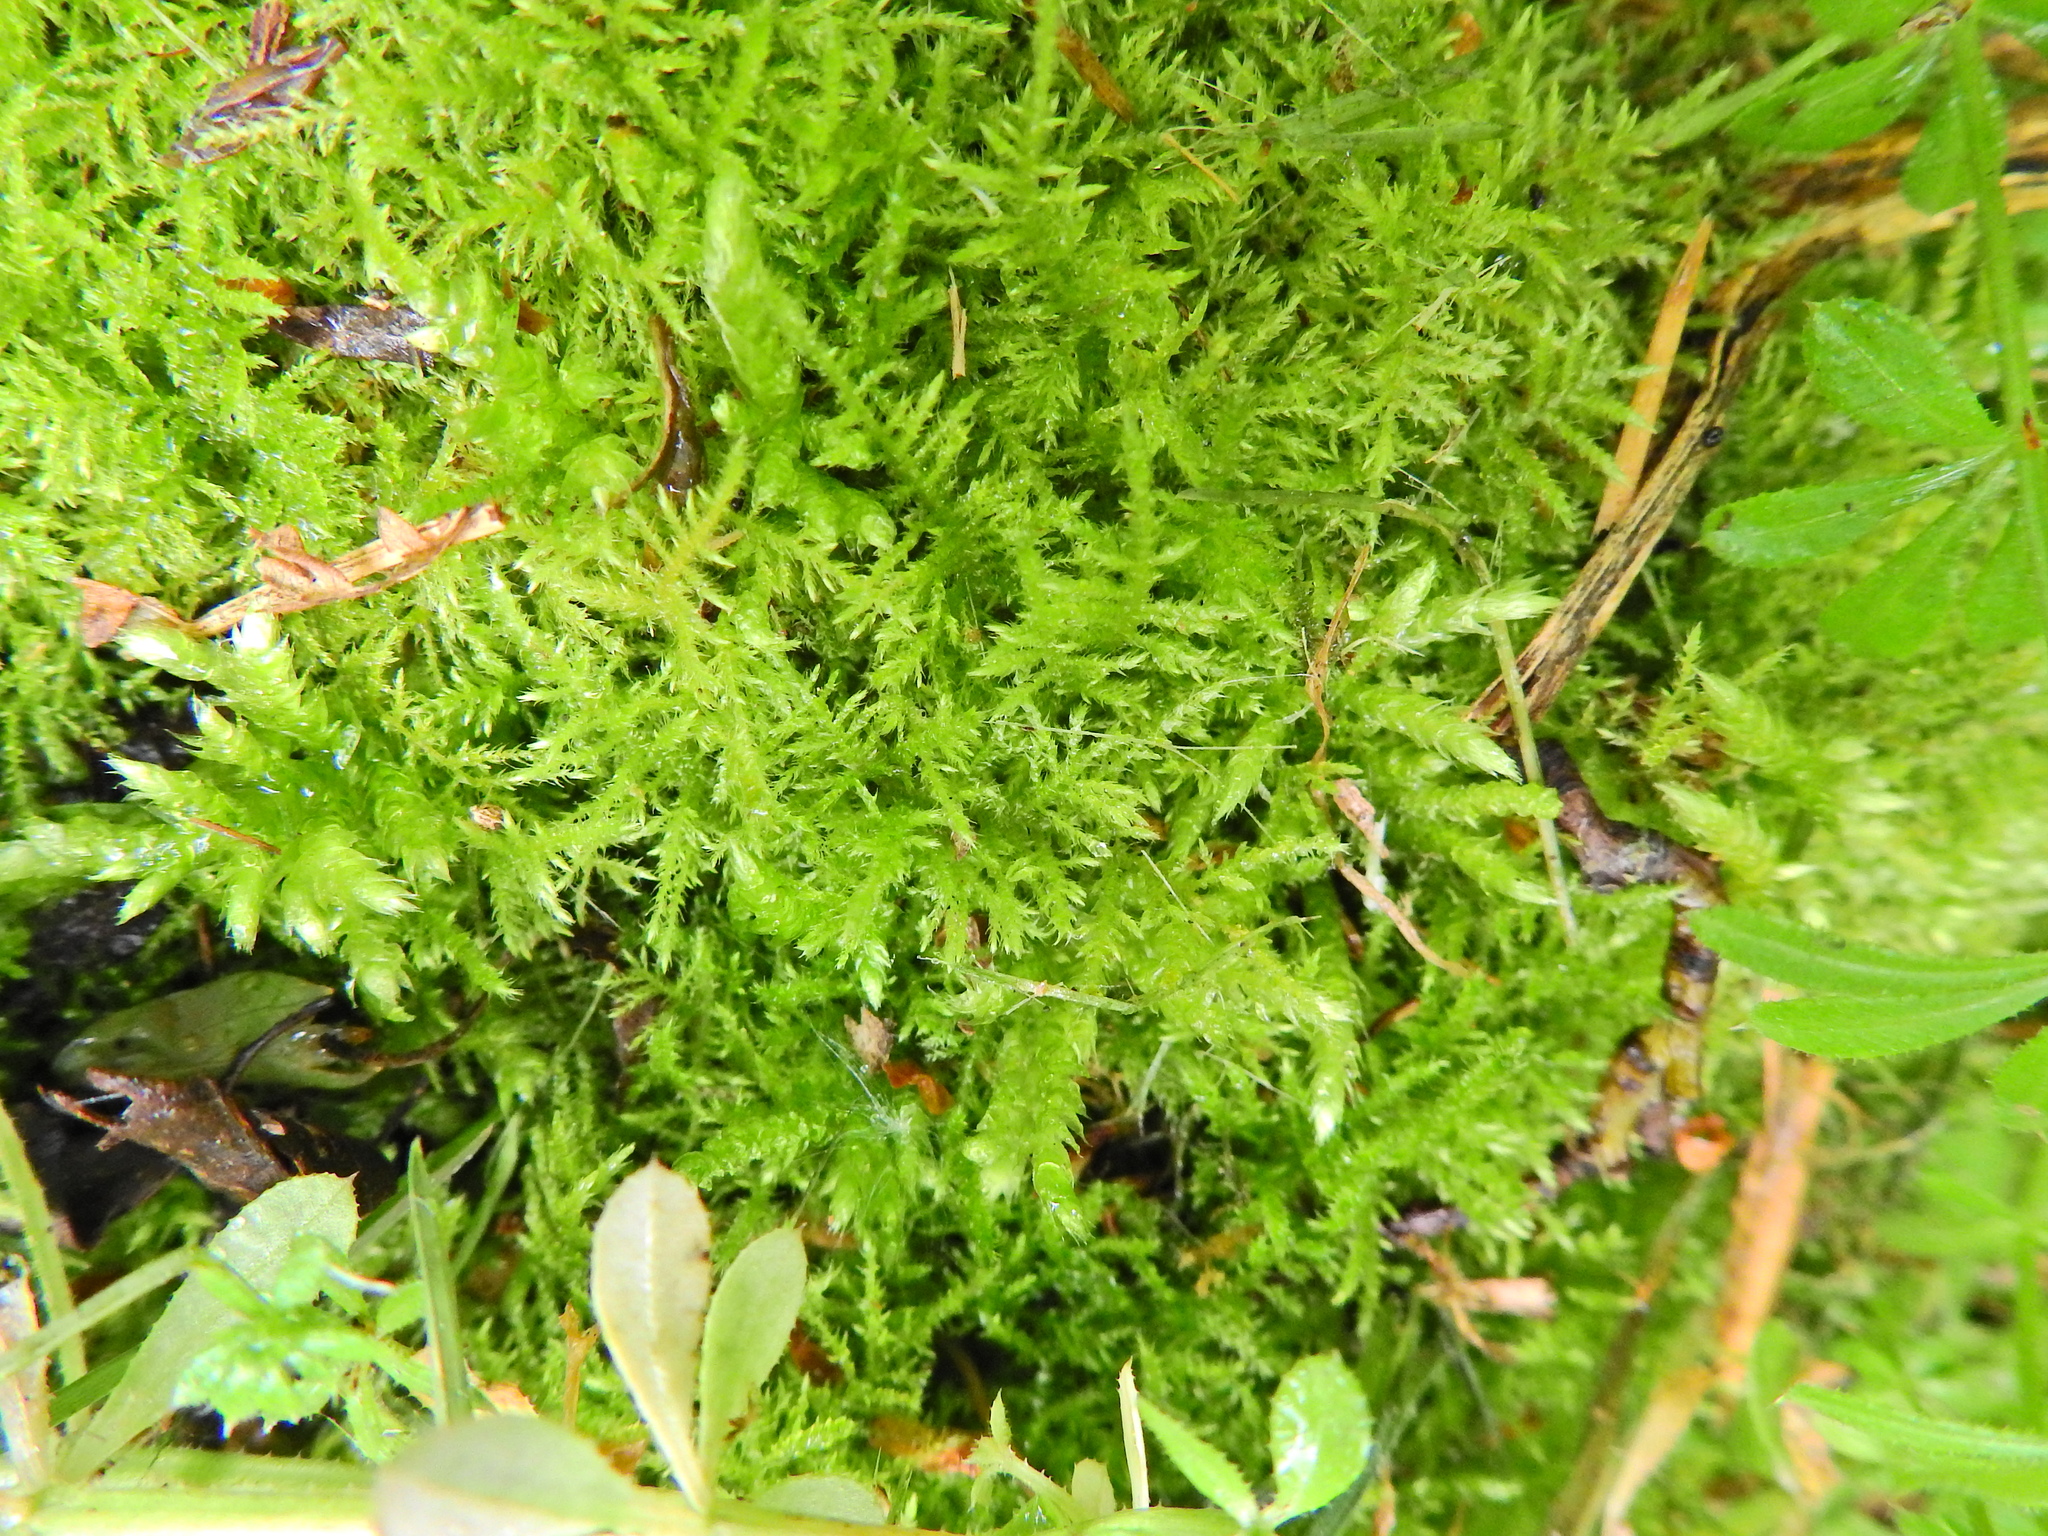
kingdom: Plantae
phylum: Bryophyta
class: Bryopsida
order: Hypnales
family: Brachytheciaceae
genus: Kindbergia
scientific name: Kindbergia praelonga
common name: Slender beaked moss
